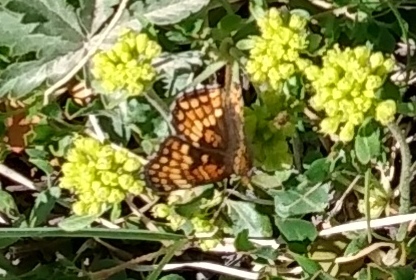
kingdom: Animalia
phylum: Arthropoda
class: Insecta
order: Lepidoptera
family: Nymphalidae
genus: Chlosyne
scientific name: Chlosyne palla
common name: Northern checkerspot
